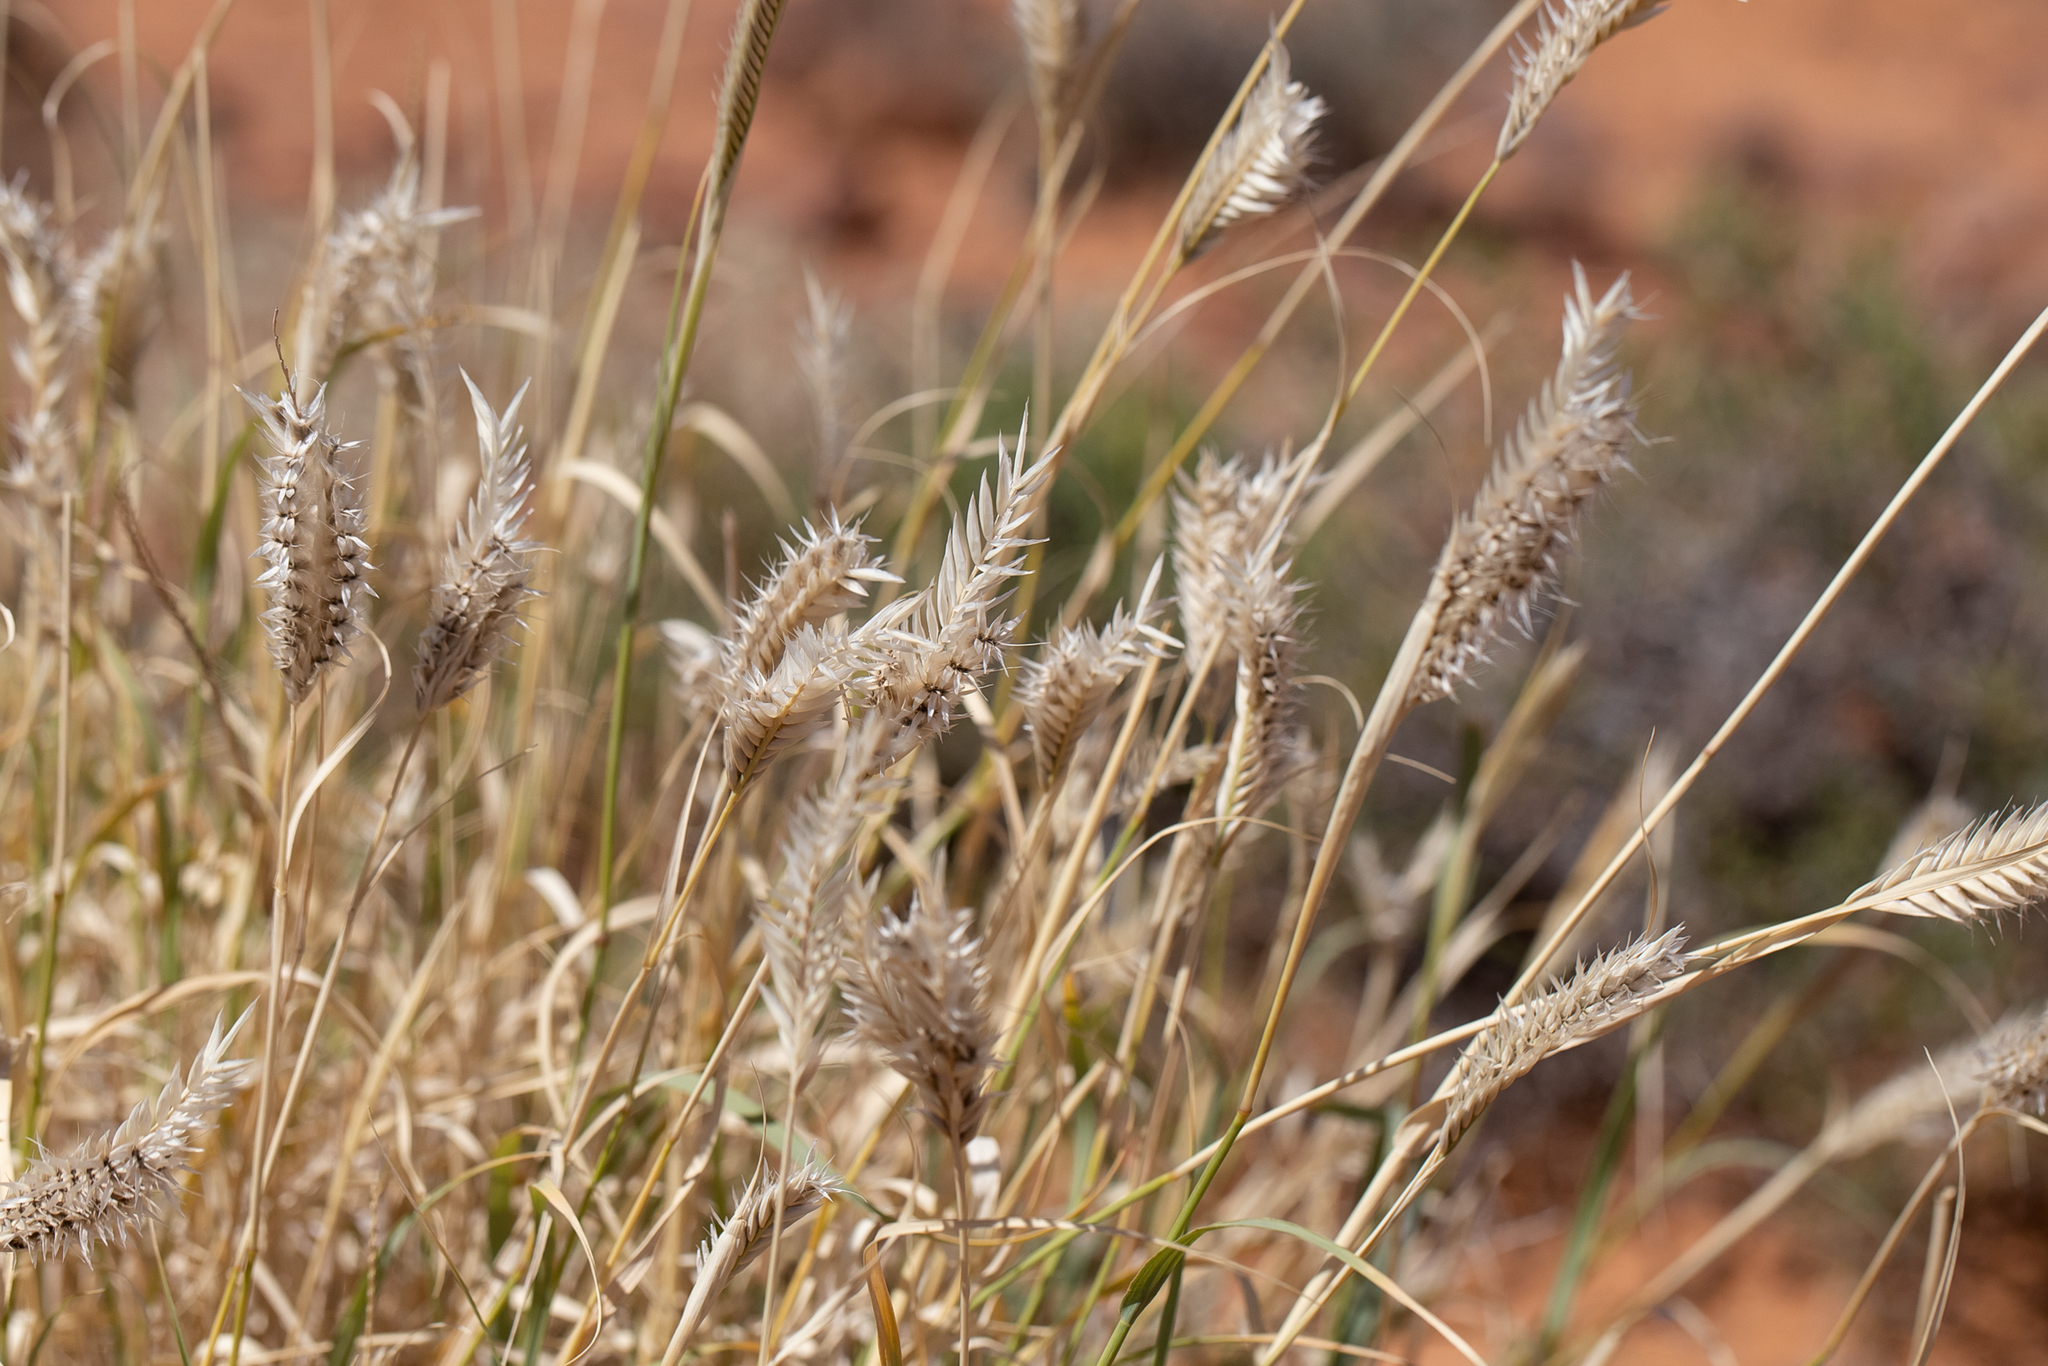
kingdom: Plantae
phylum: Tracheophyta
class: Liliopsida
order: Poales
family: Poaceae
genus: Astrebla
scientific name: Astrebla pectinata
